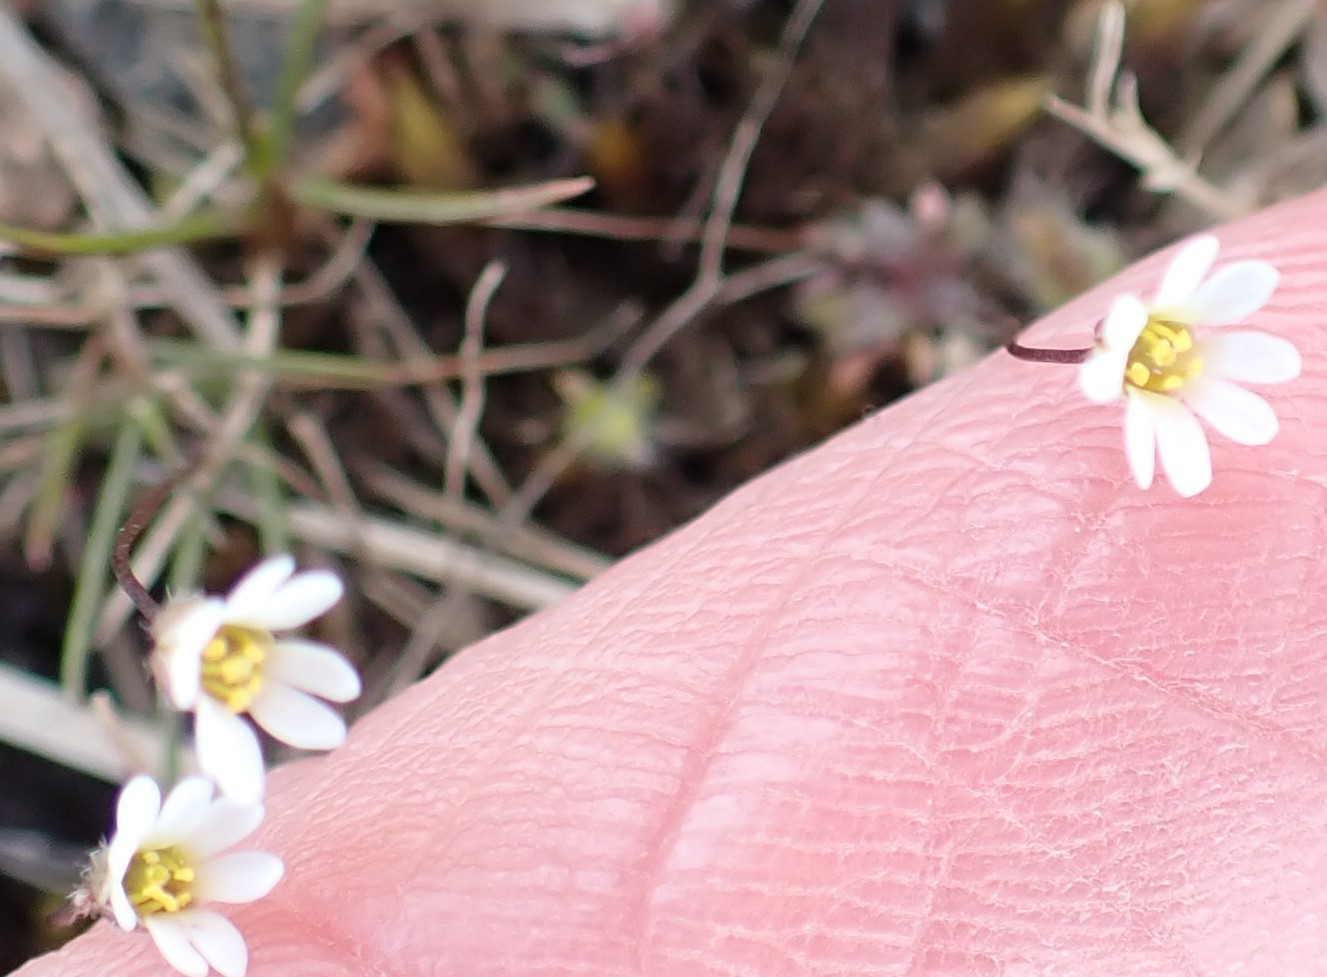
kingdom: Plantae
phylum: Tracheophyta
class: Magnoliopsida
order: Brassicales
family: Brassicaceae
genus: Draba
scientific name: Draba verna
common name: Spring draba
